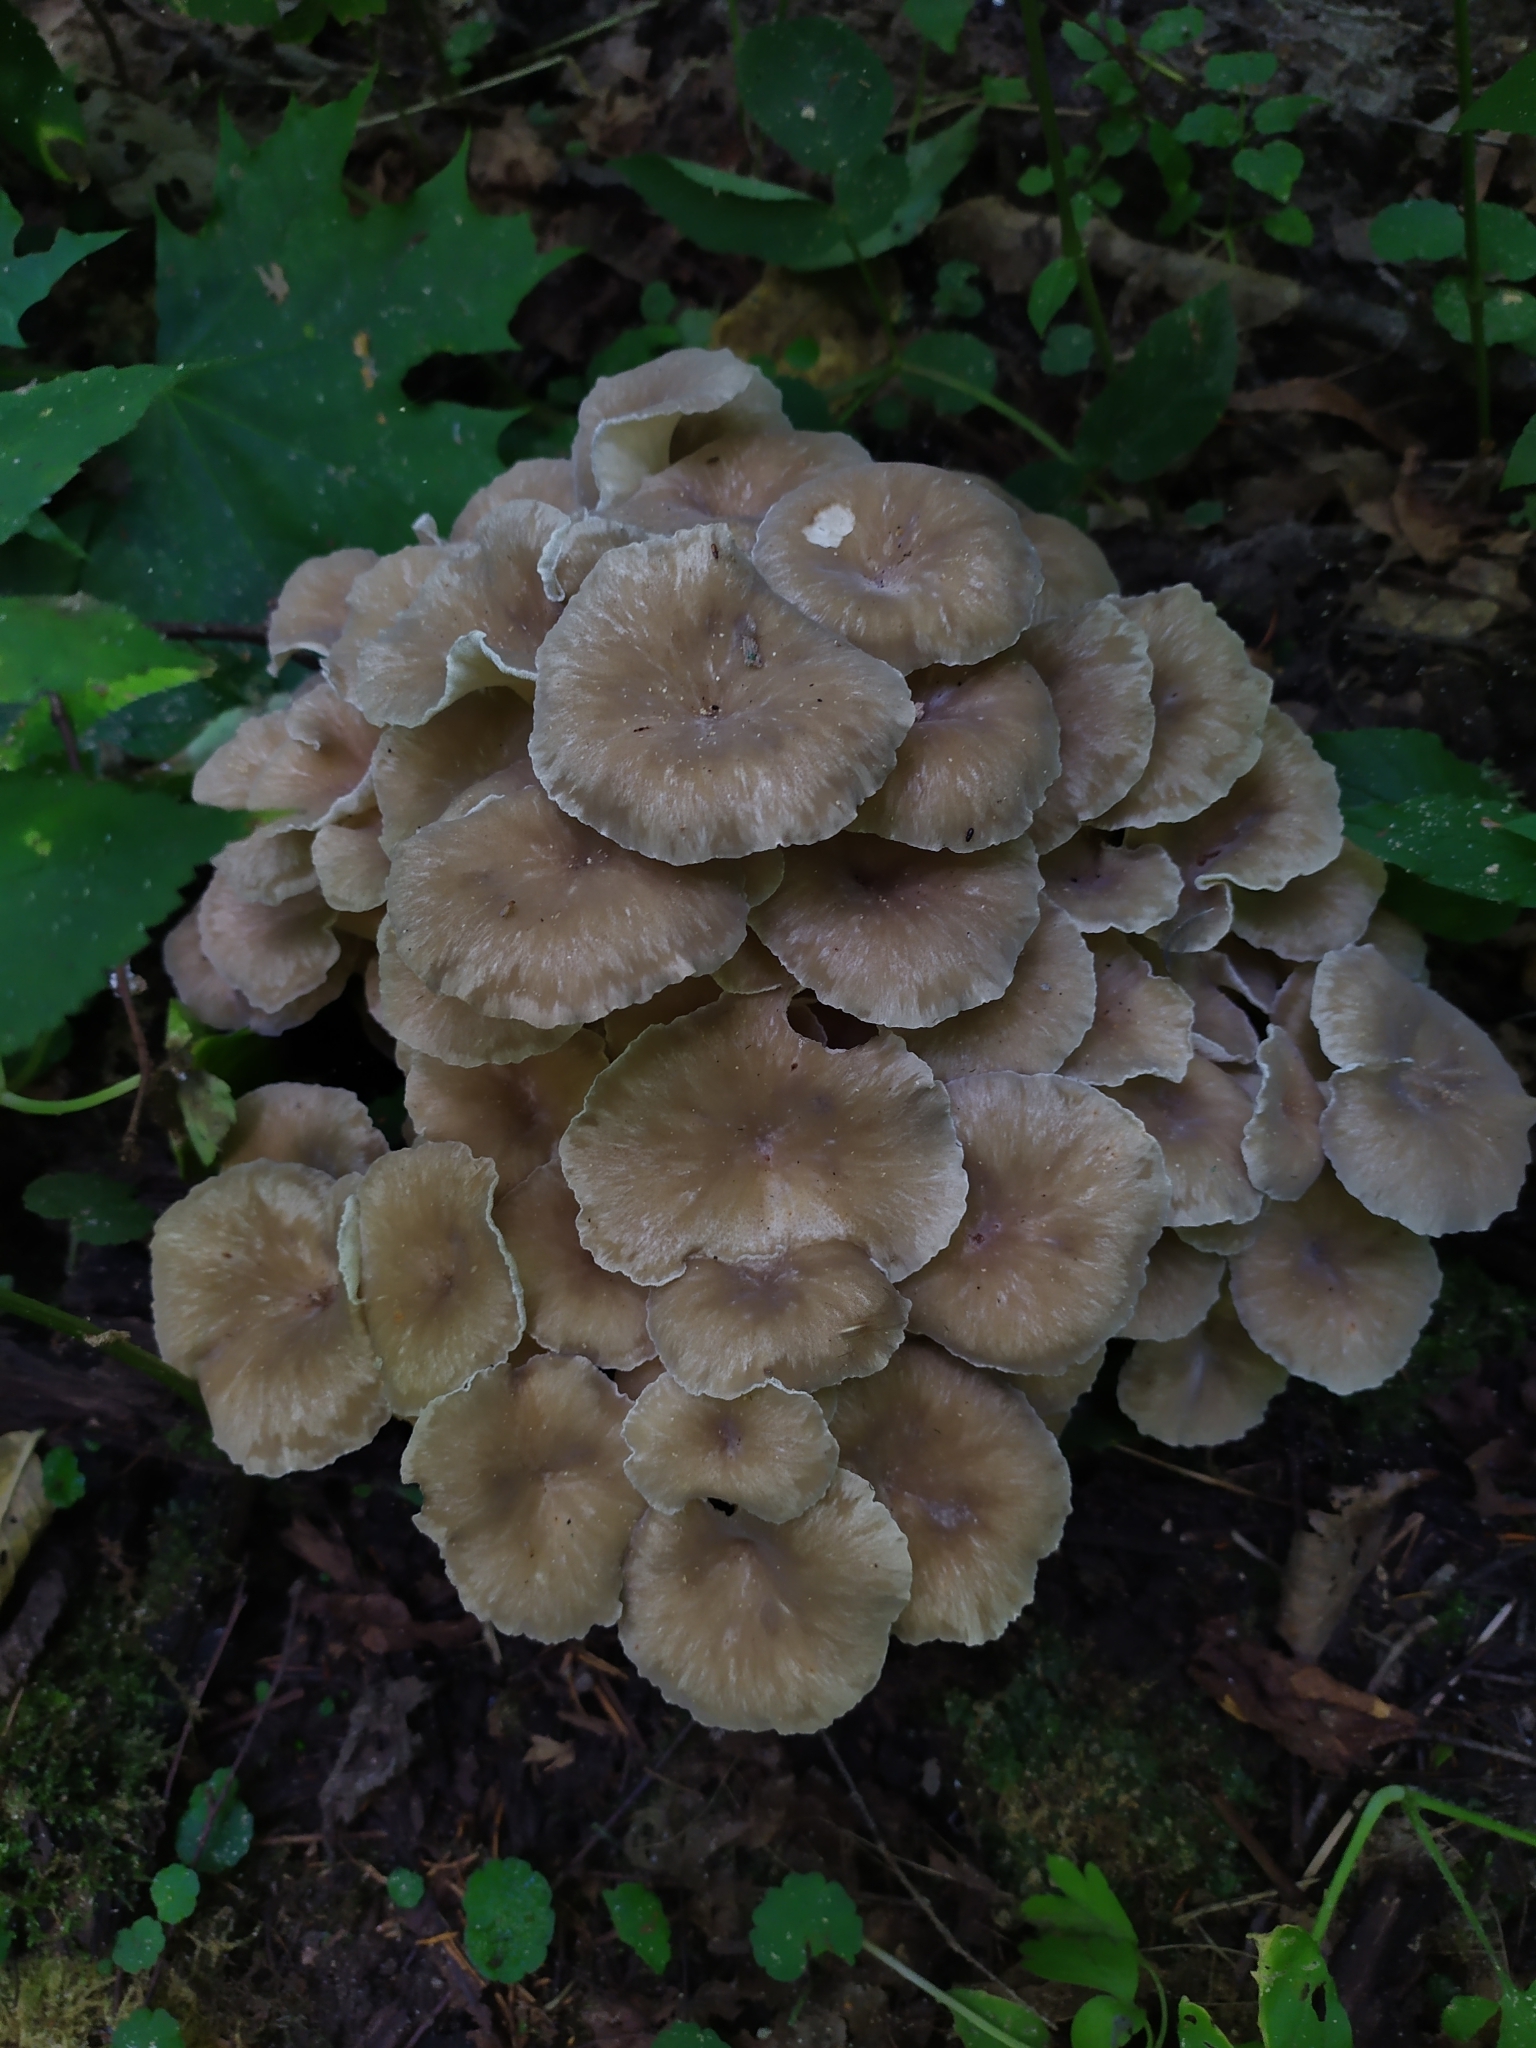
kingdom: Fungi
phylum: Basidiomycota
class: Agaricomycetes
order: Polyporales
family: Polyporaceae
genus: Polyporus
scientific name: Polyporus umbellatus
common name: Umbrella polypore
